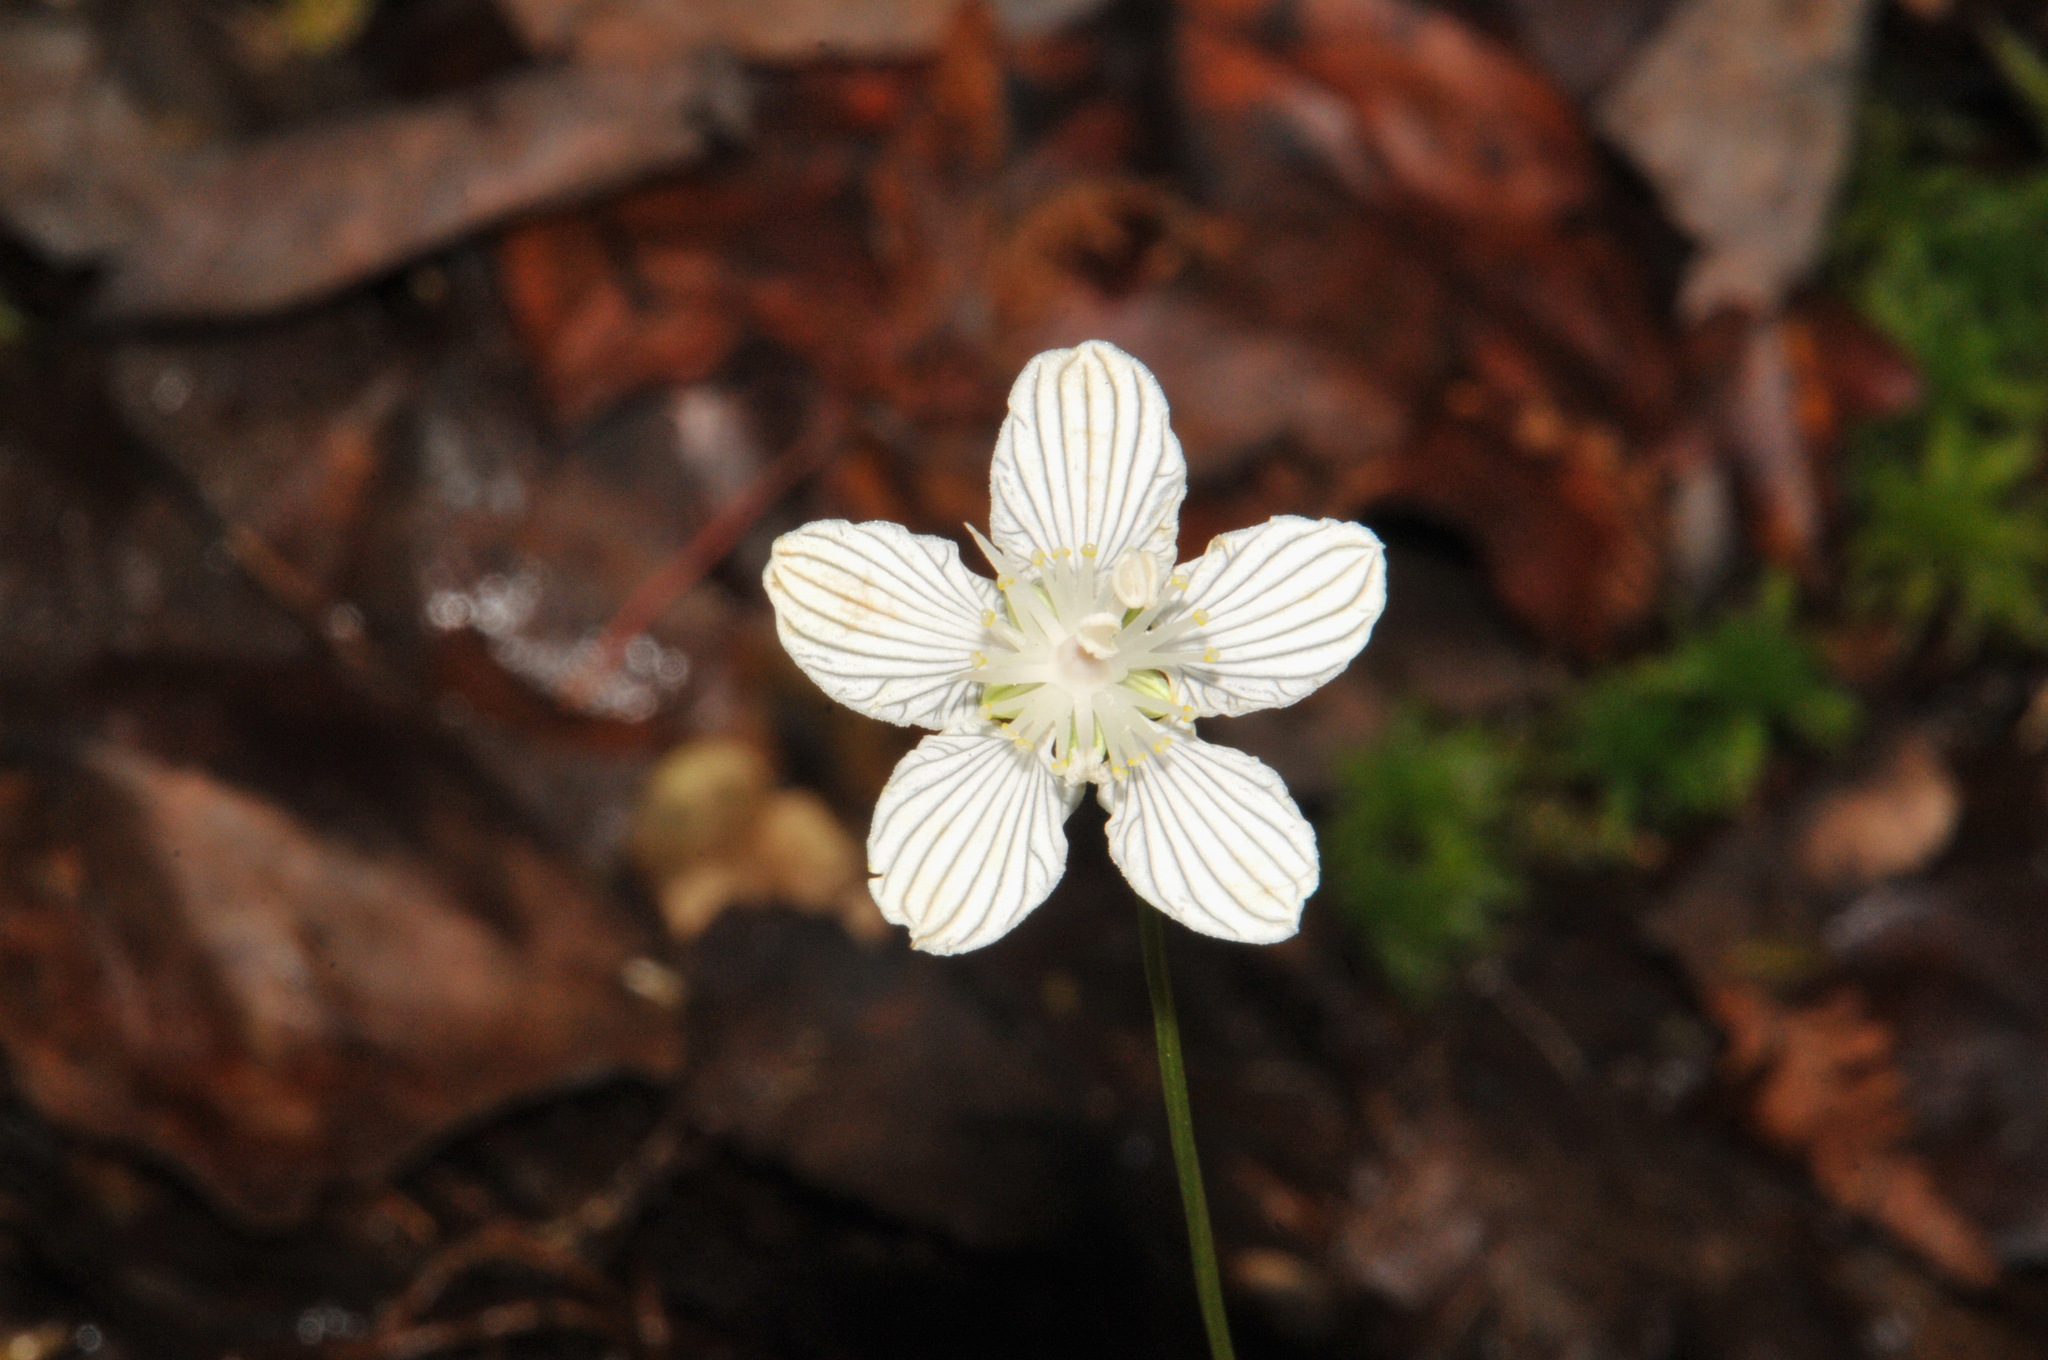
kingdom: Plantae
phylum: Tracheophyta
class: Magnoliopsida
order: Celastrales
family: Parnassiaceae
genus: Parnassia
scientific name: Parnassia asarifolia
